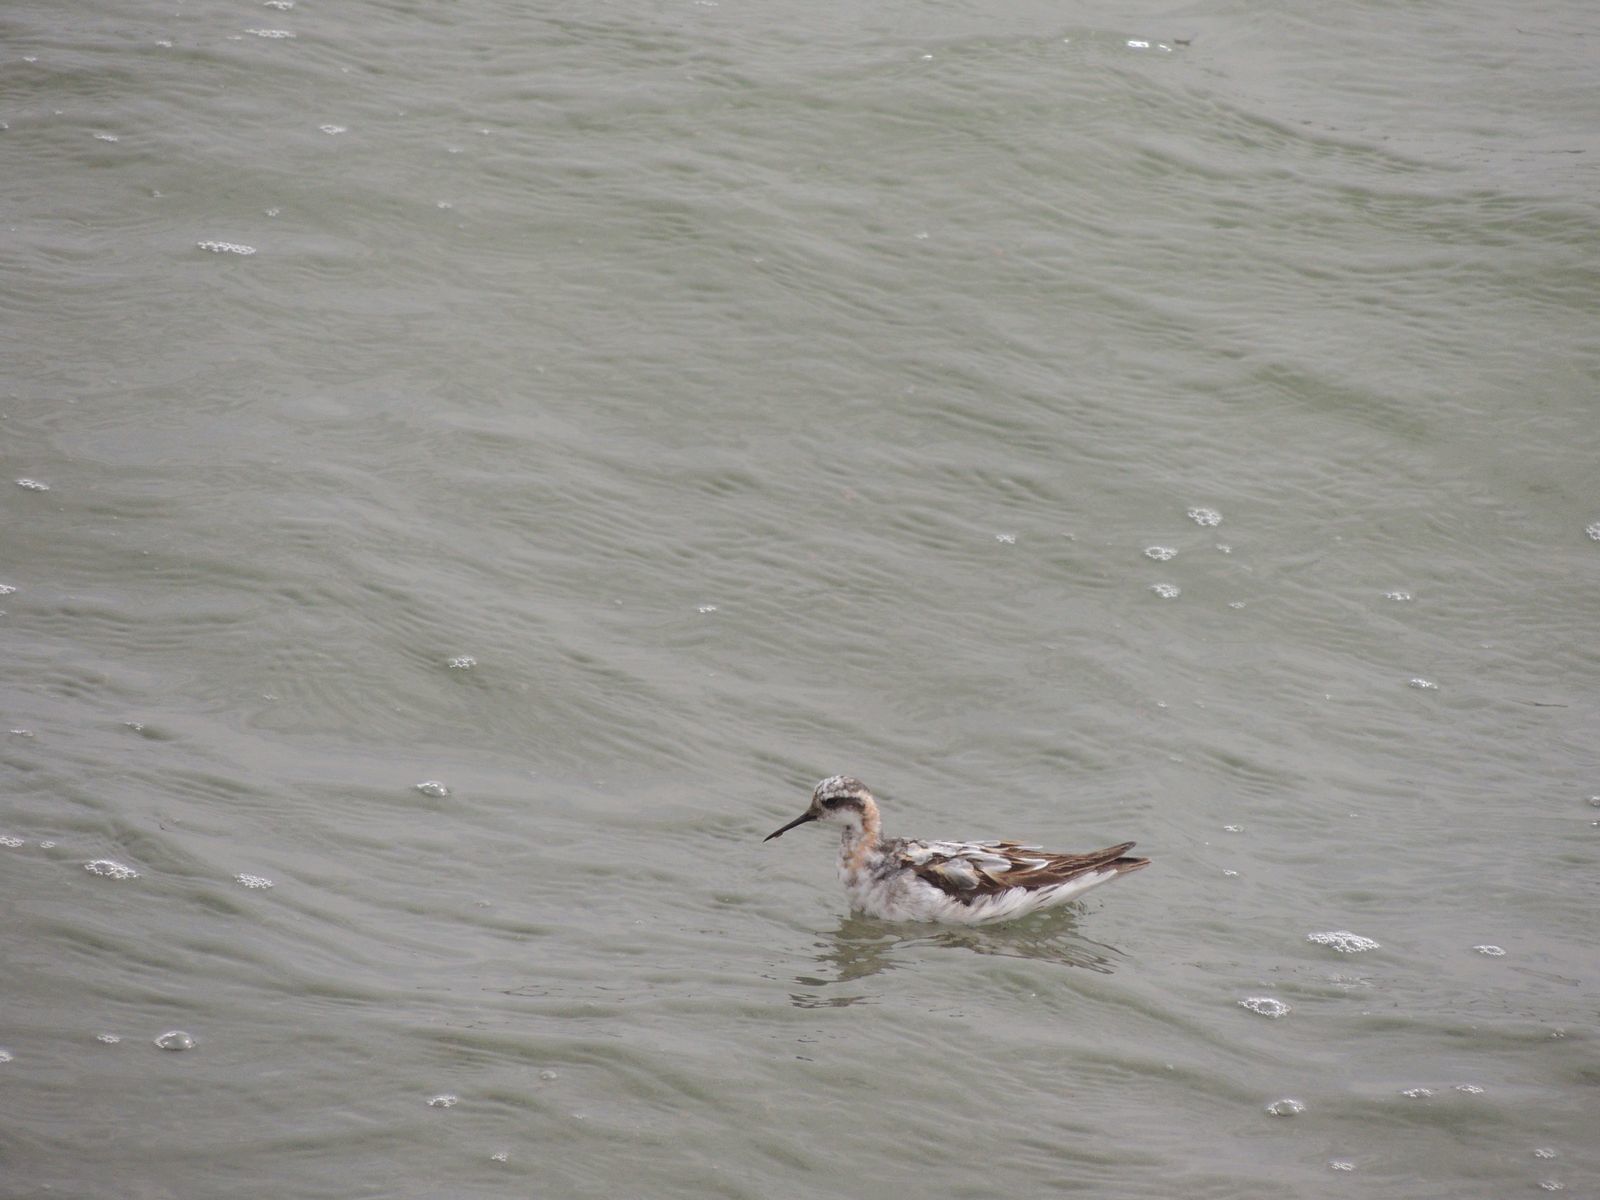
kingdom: Animalia
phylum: Chordata
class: Aves
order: Charadriiformes
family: Scolopacidae
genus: Phalaropus
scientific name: Phalaropus lobatus
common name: Red-necked phalarope
